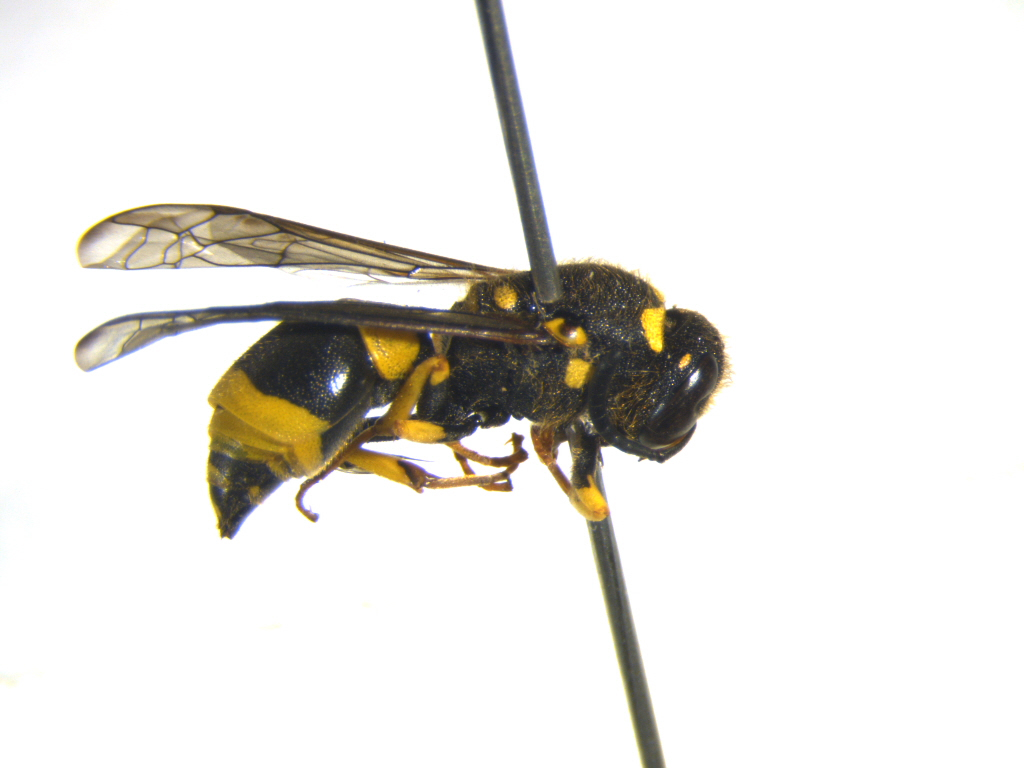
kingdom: Animalia
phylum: Arthropoda
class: Insecta
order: Hymenoptera
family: Vespidae
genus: Ancistrocerus
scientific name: Ancistrocerus gazella
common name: European tube wasp
